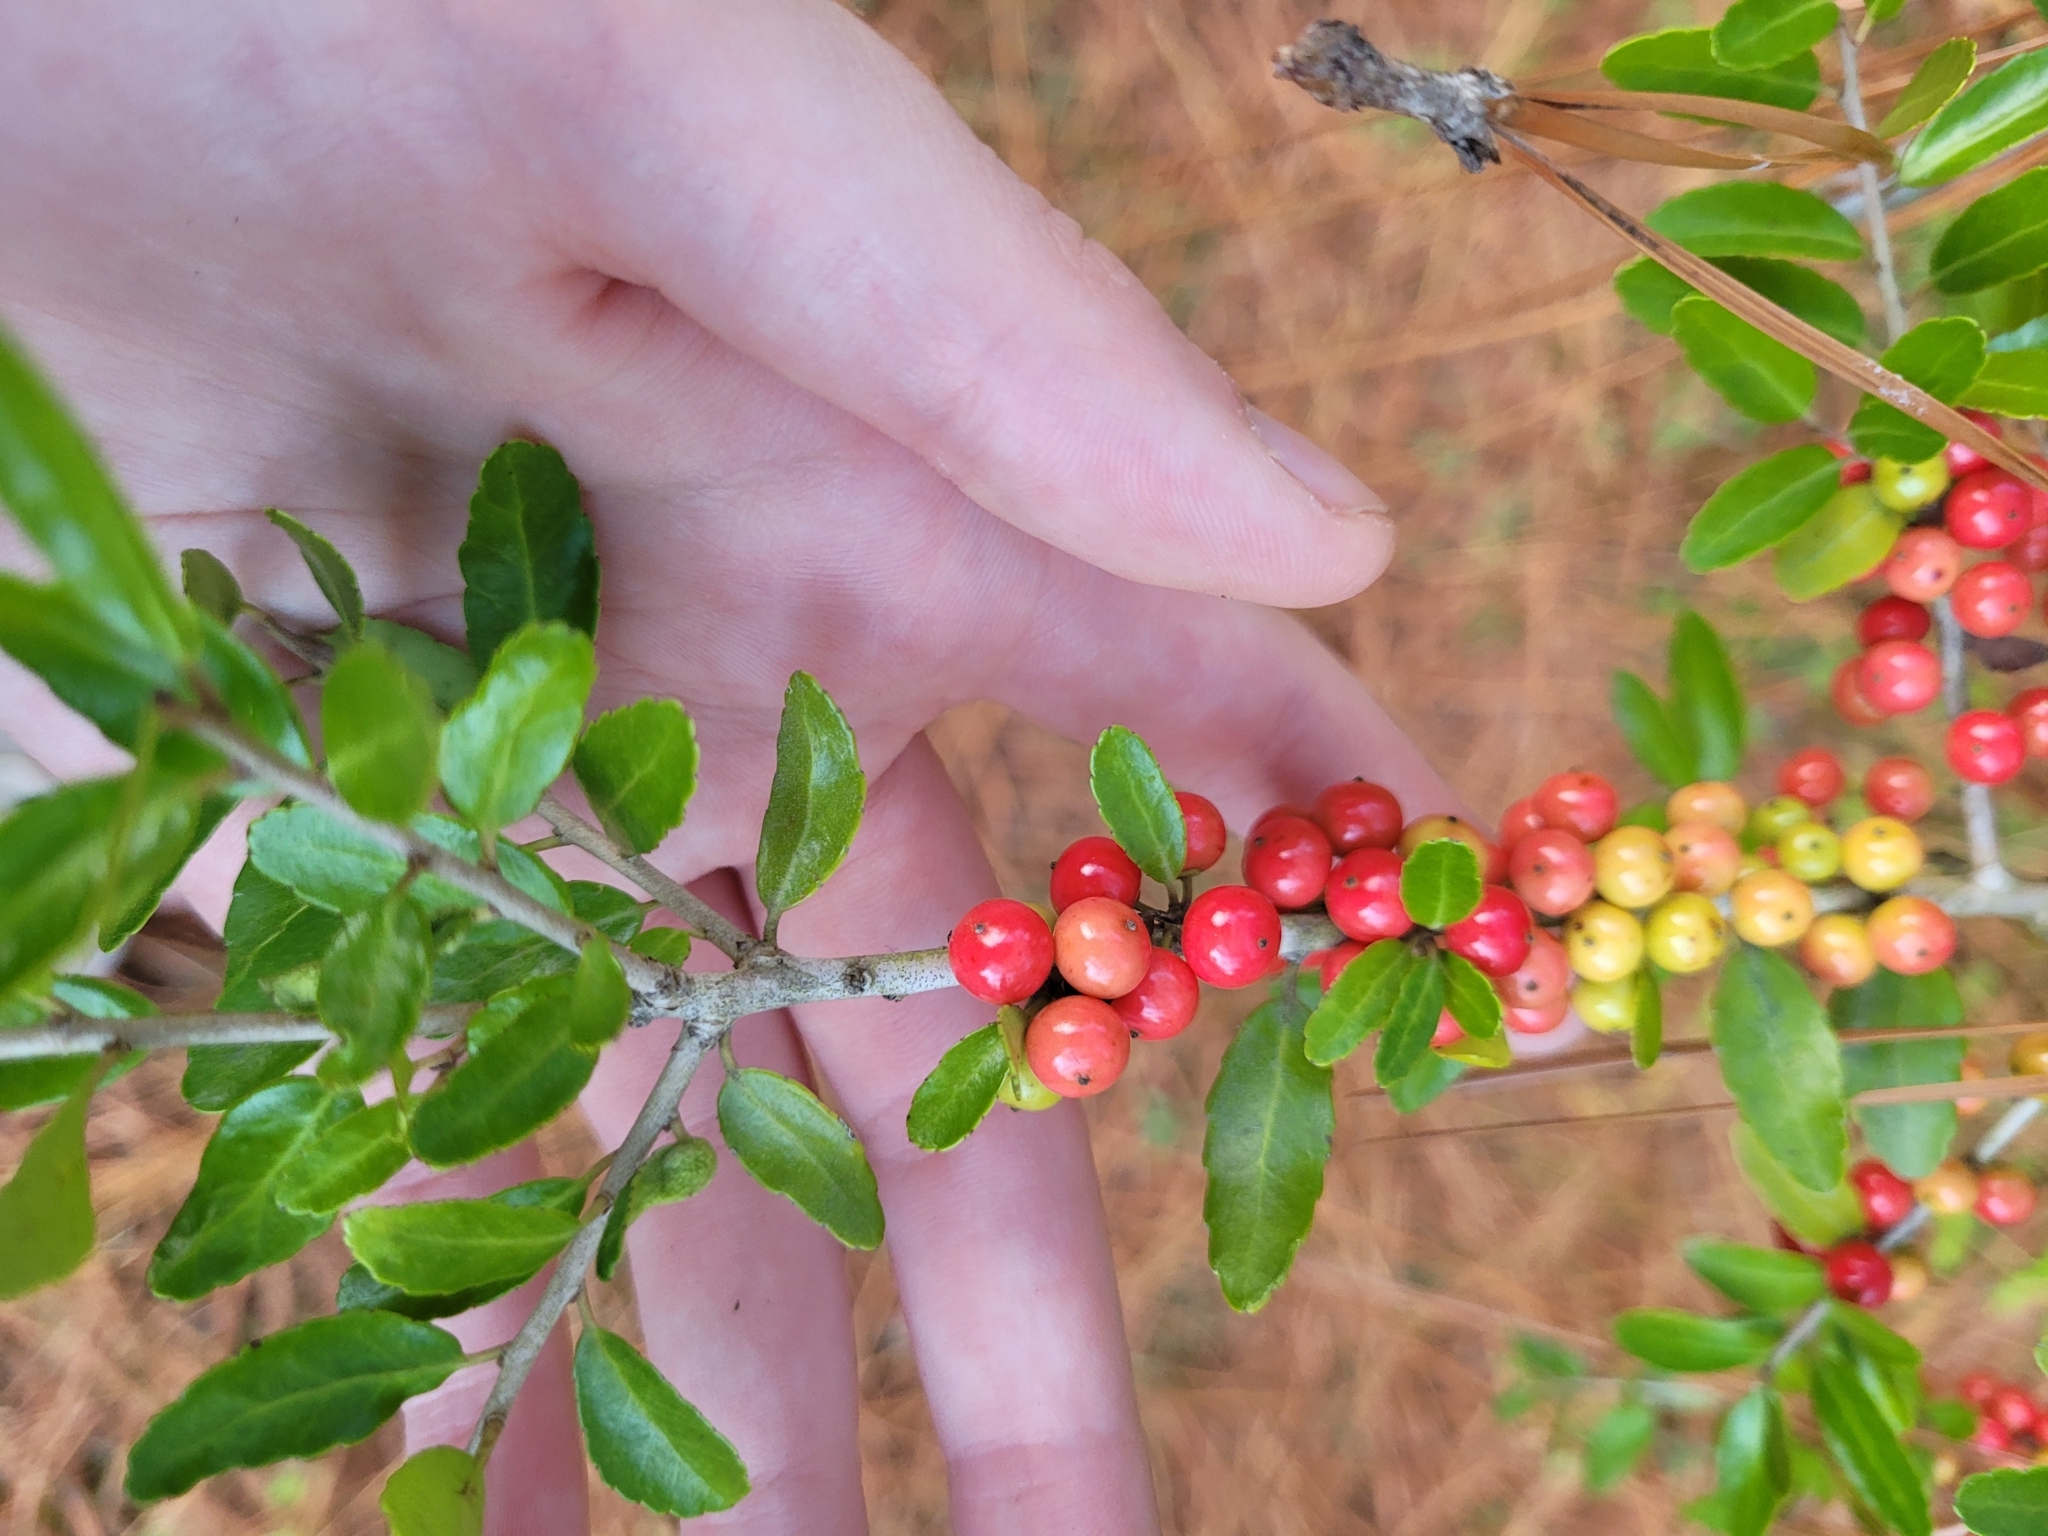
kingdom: Plantae
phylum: Tracheophyta
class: Magnoliopsida
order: Aquifoliales
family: Aquifoliaceae
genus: Ilex
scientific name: Ilex vomitoria
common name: Yaupon holly
